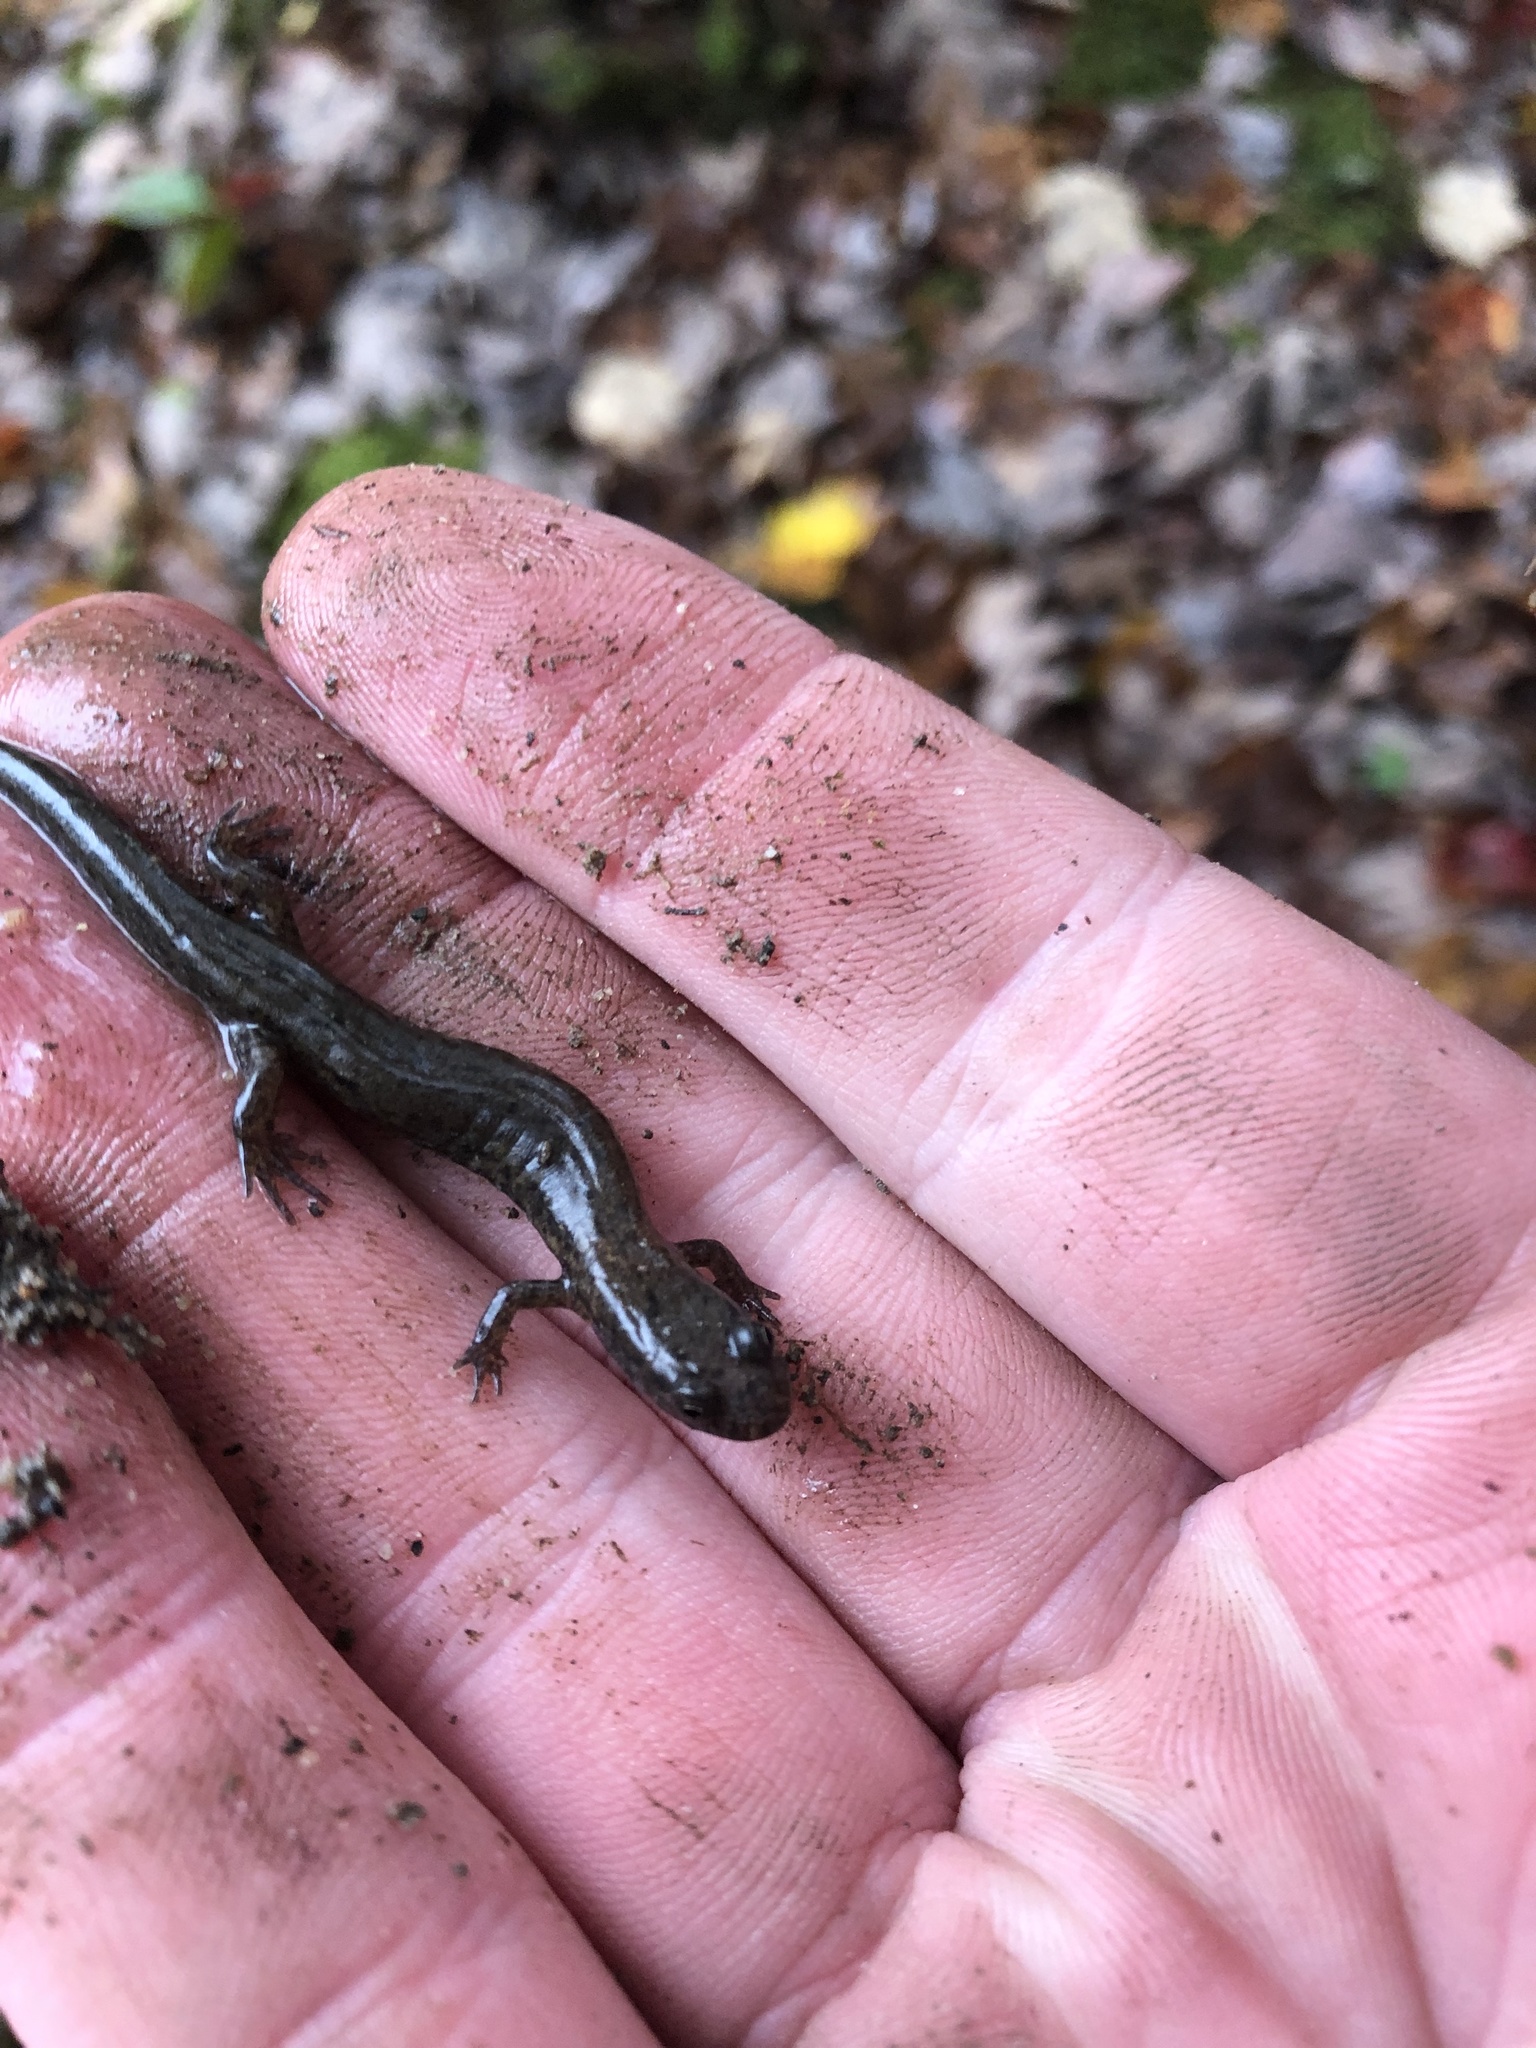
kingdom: Animalia
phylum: Chordata
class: Amphibia
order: Caudata
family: Plethodontidae
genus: Desmognathus
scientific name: Desmognathus fuscus
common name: Northern dusky salamander
